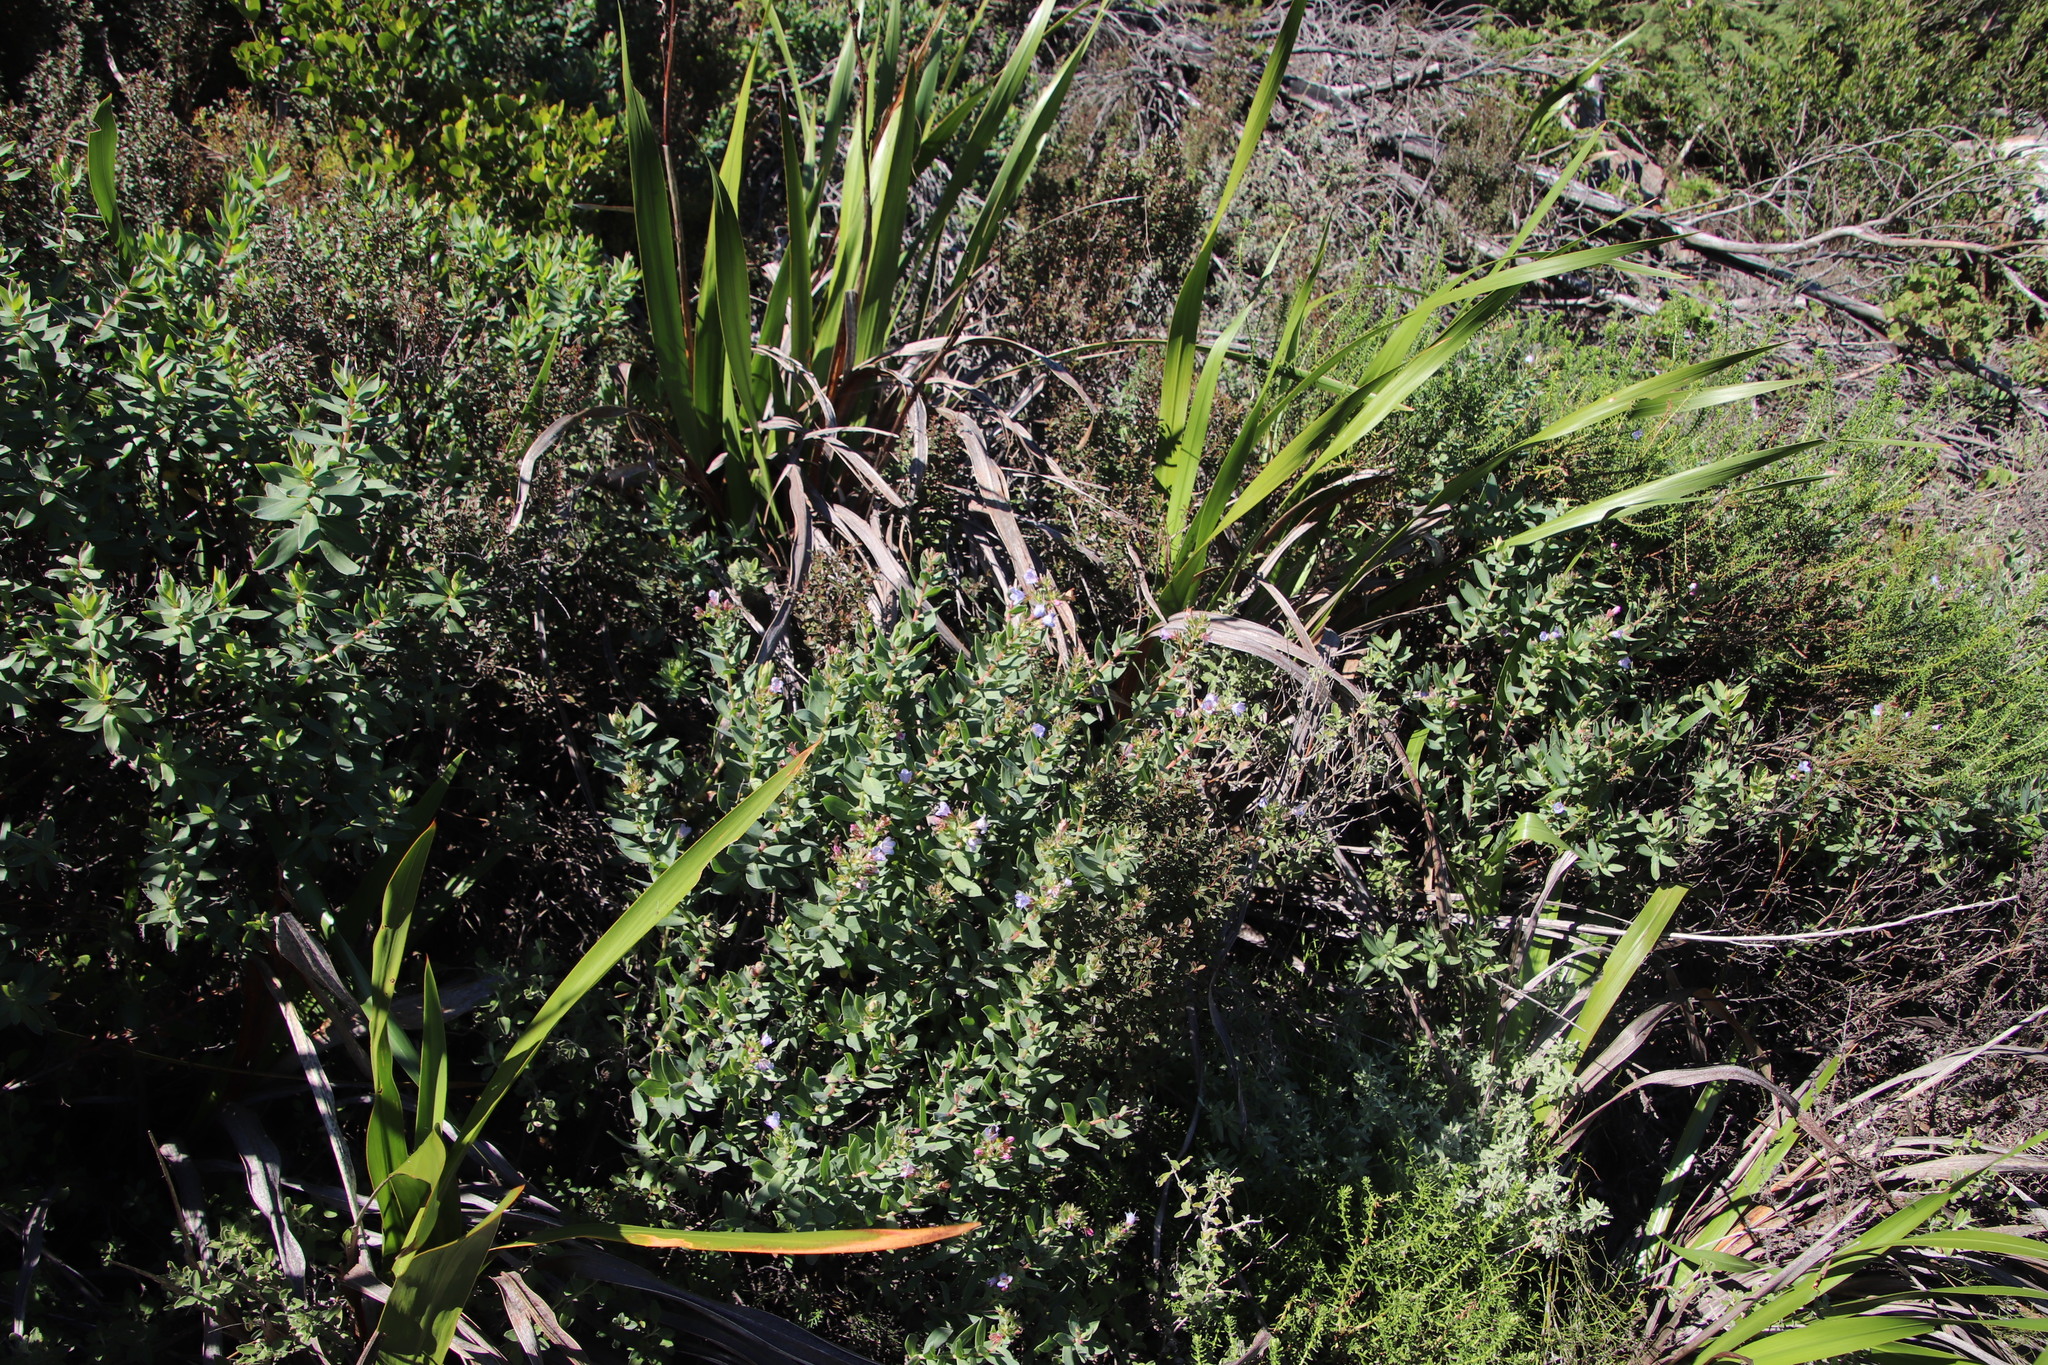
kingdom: Plantae
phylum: Tracheophyta
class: Magnoliopsida
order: Boraginales
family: Boraginaceae
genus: Lobostemon
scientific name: Lobostemon glaucophyllus
